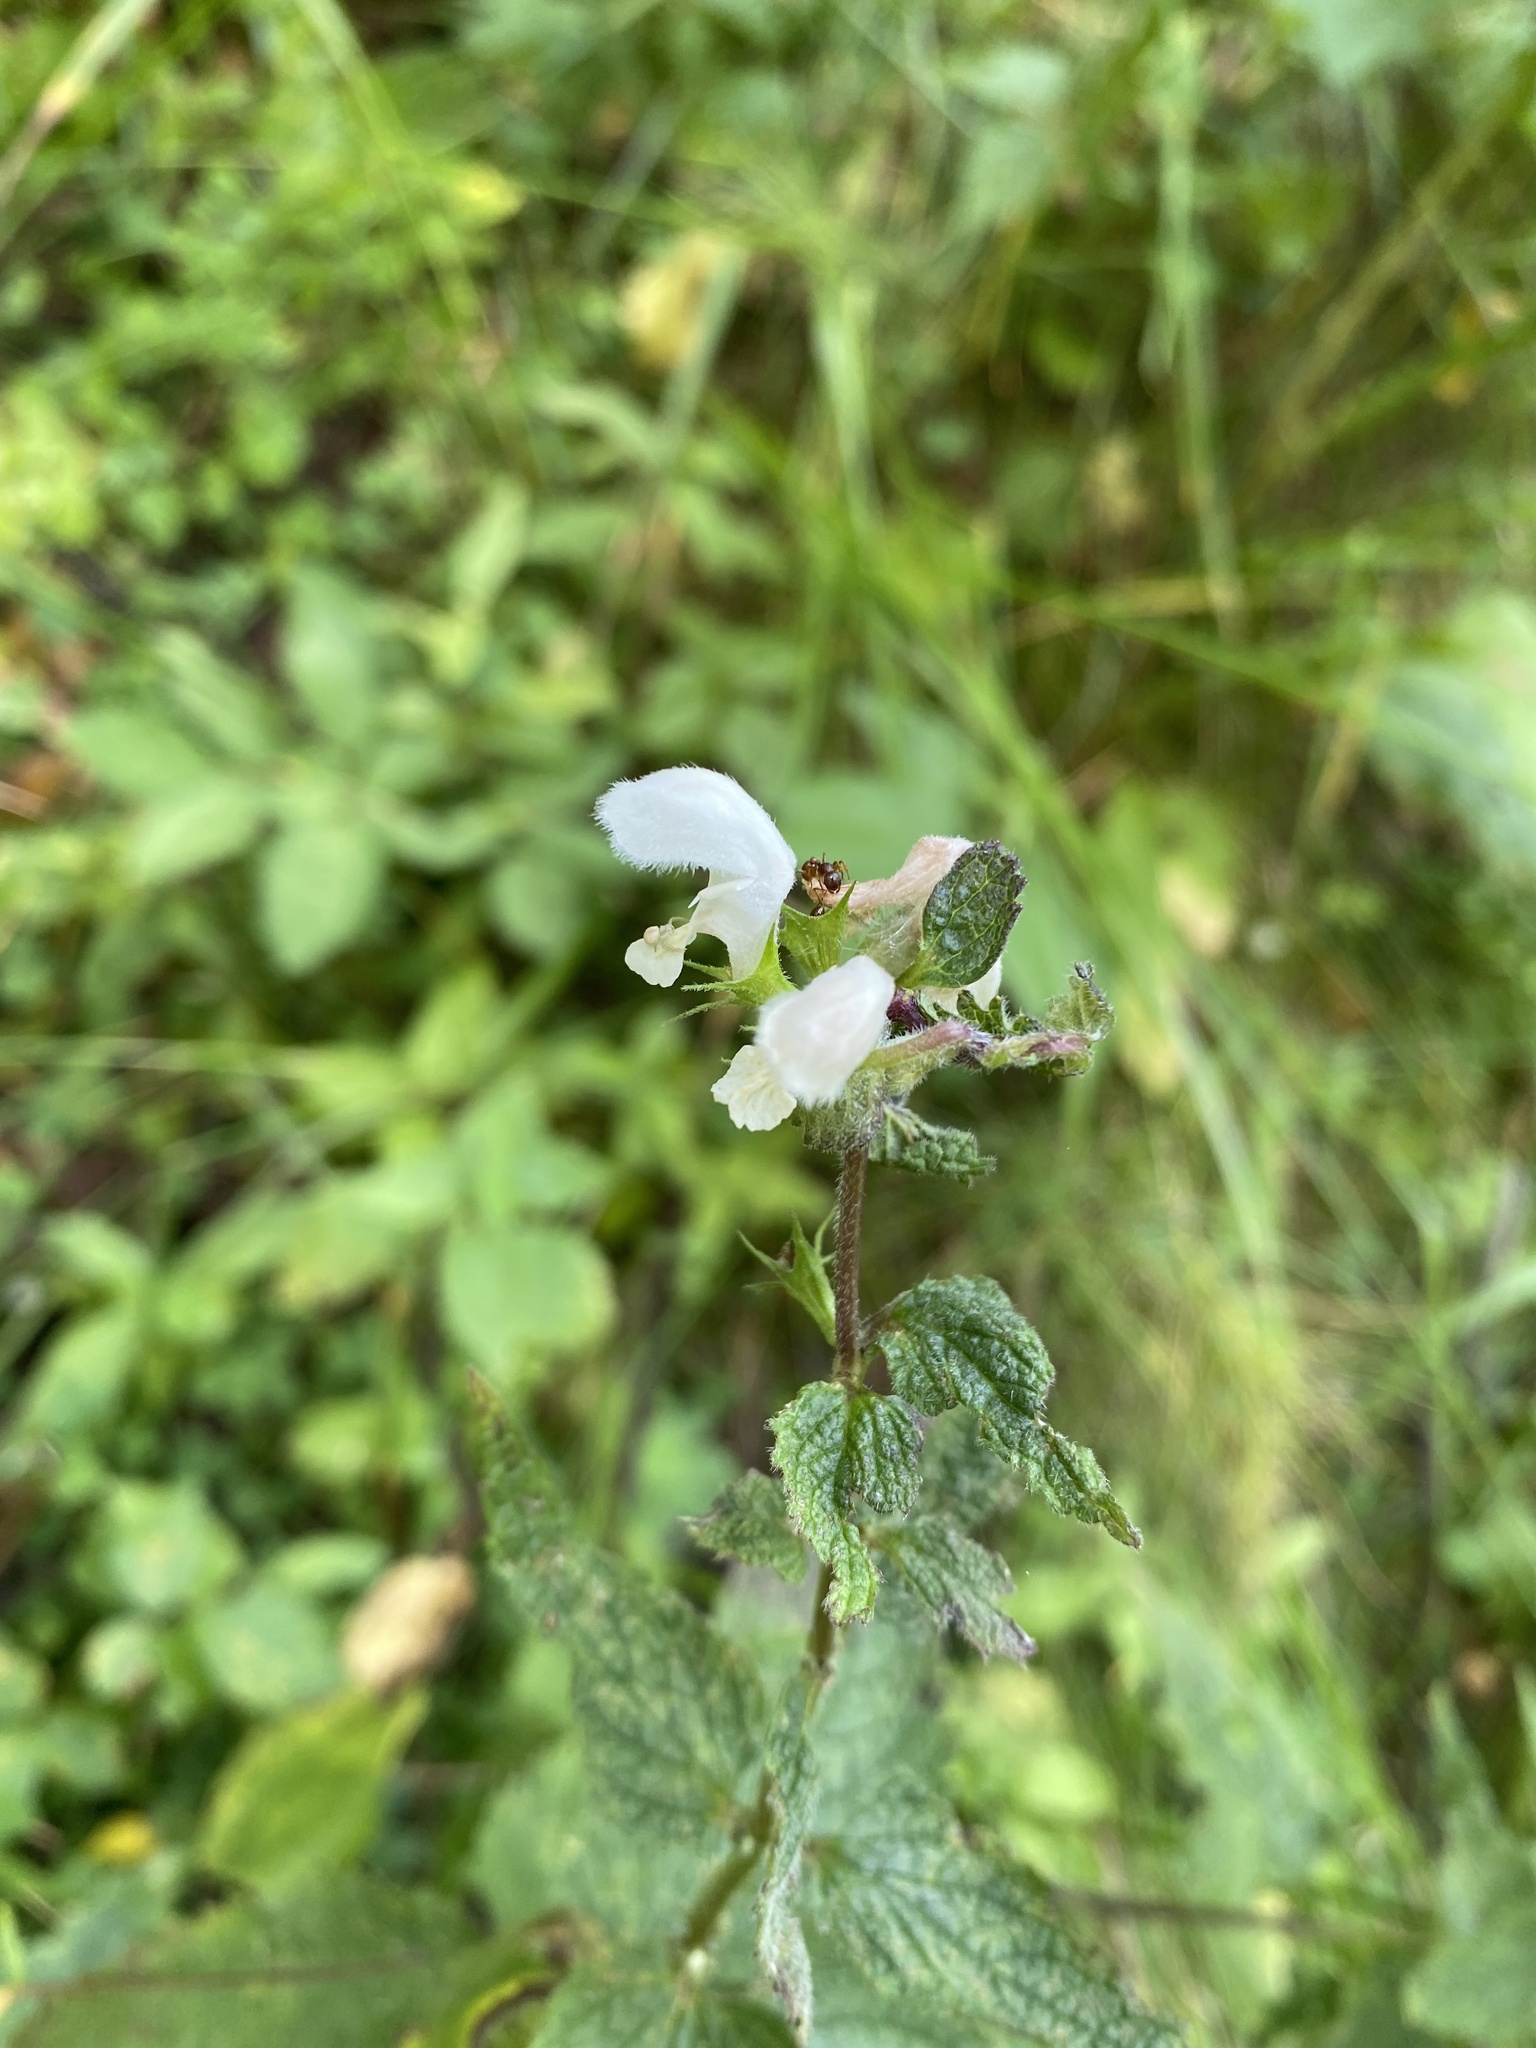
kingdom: Plantae
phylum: Tracheophyta
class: Magnoliopsida
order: Lamiales
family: Lamiaceae
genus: Lamium
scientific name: Lamium album
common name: White dead-nettle
